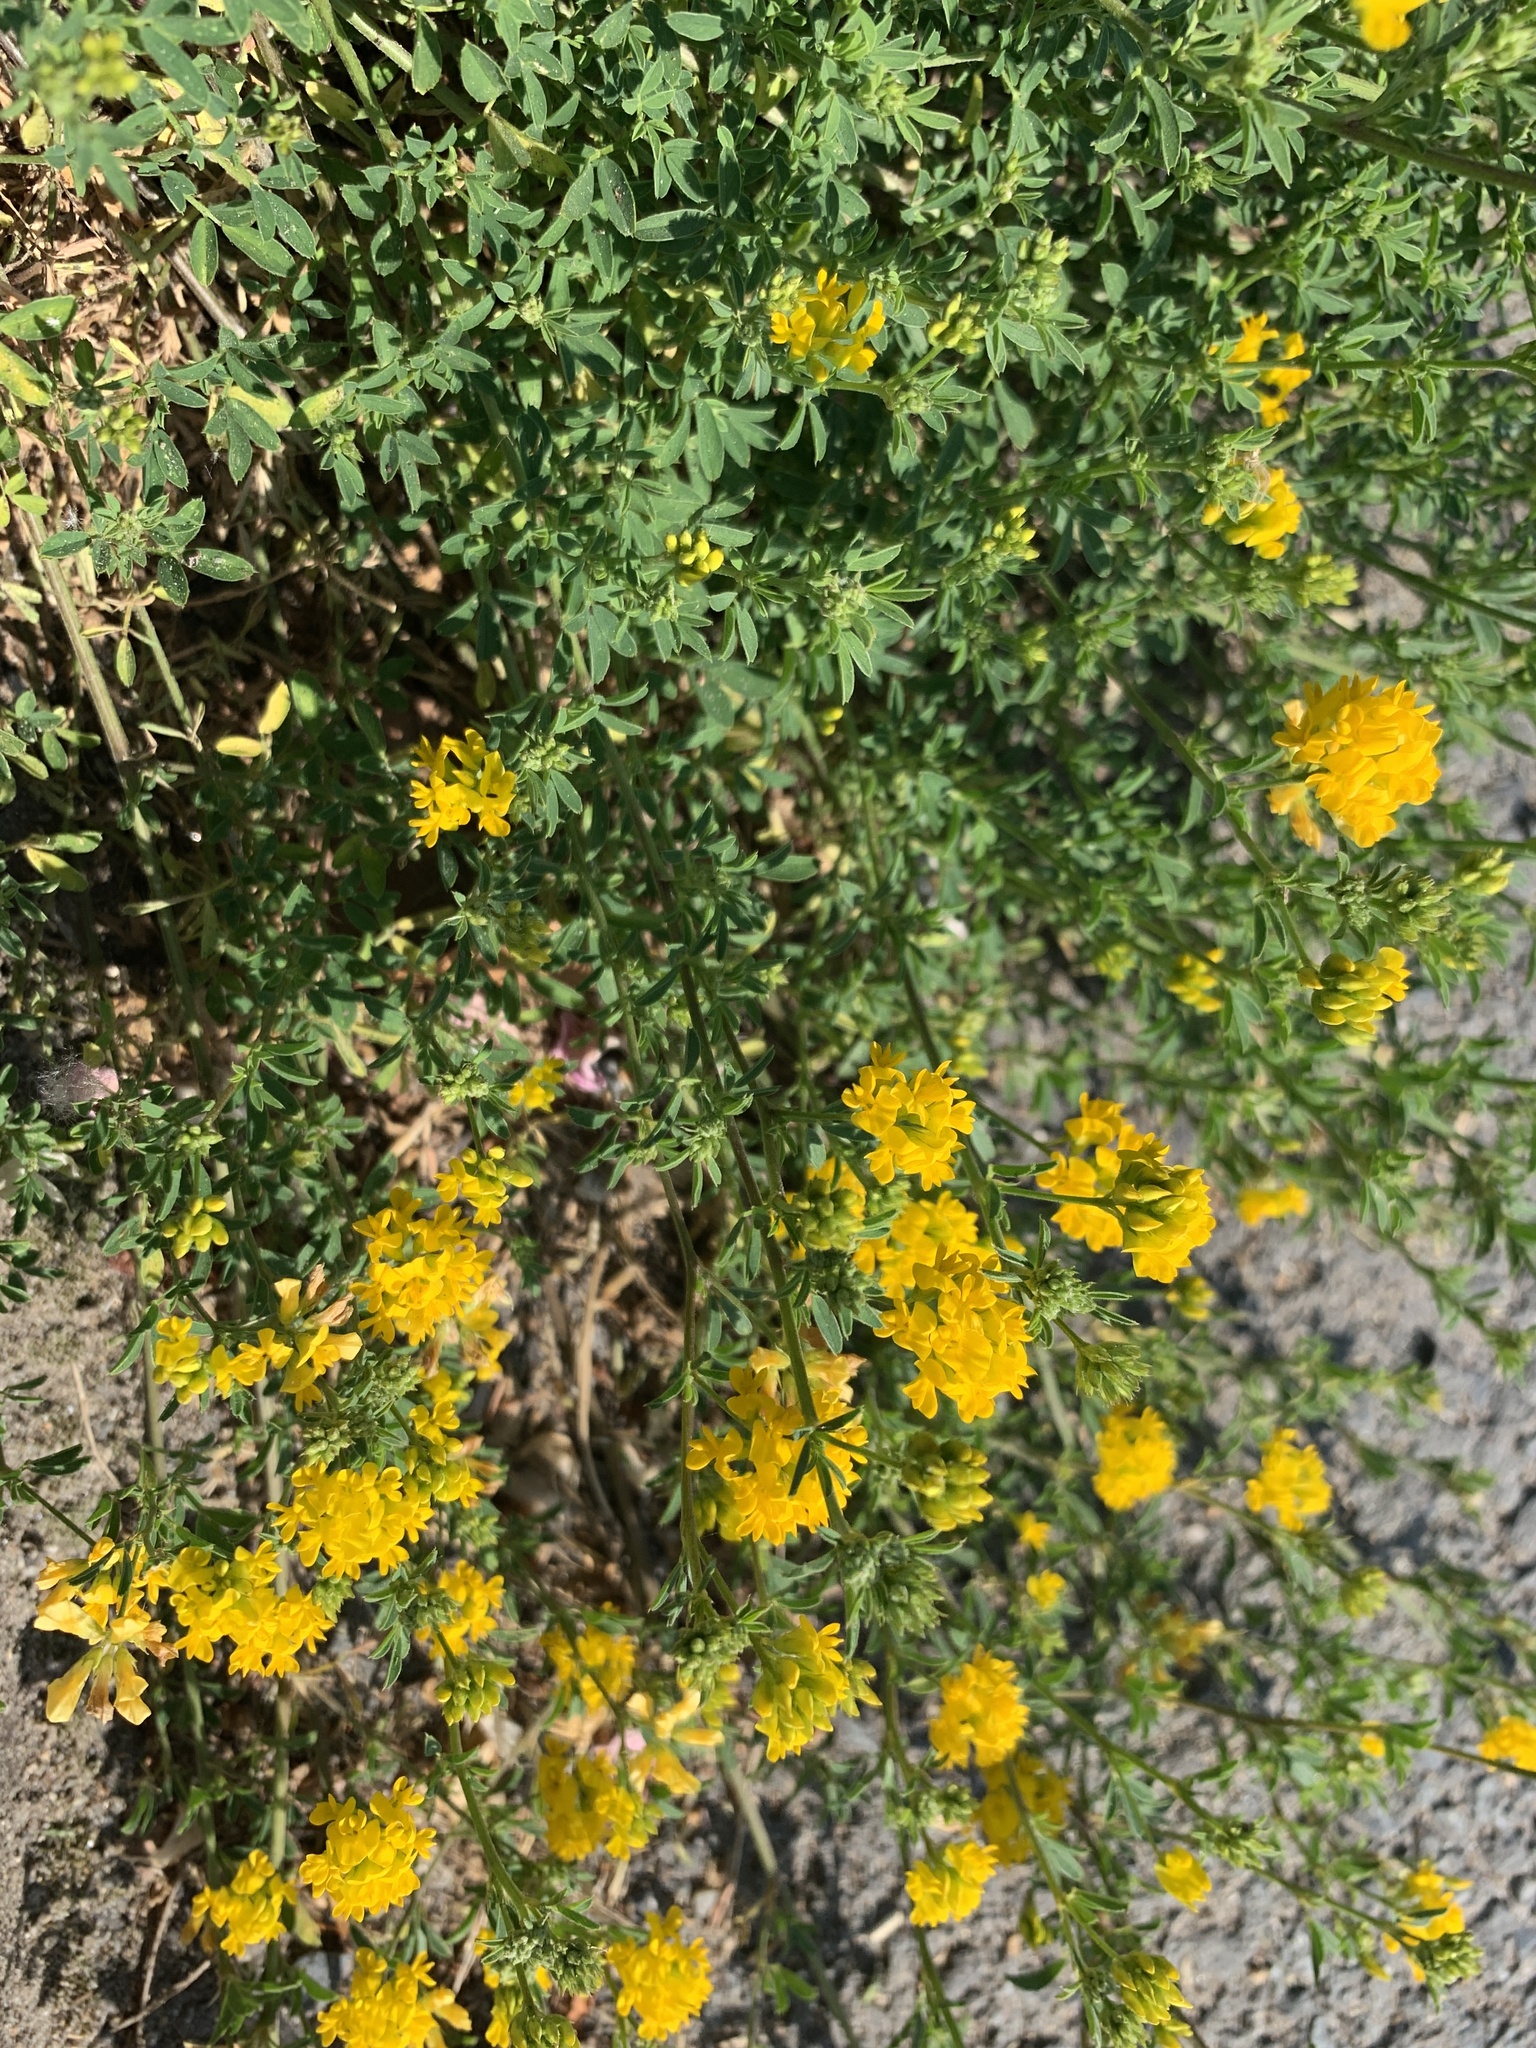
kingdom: Plantae
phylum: Tracheophyta
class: Magnoliopsida
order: Fabales
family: Fabaceae
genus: Medicago
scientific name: Medicago falcata
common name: Sickle medick
